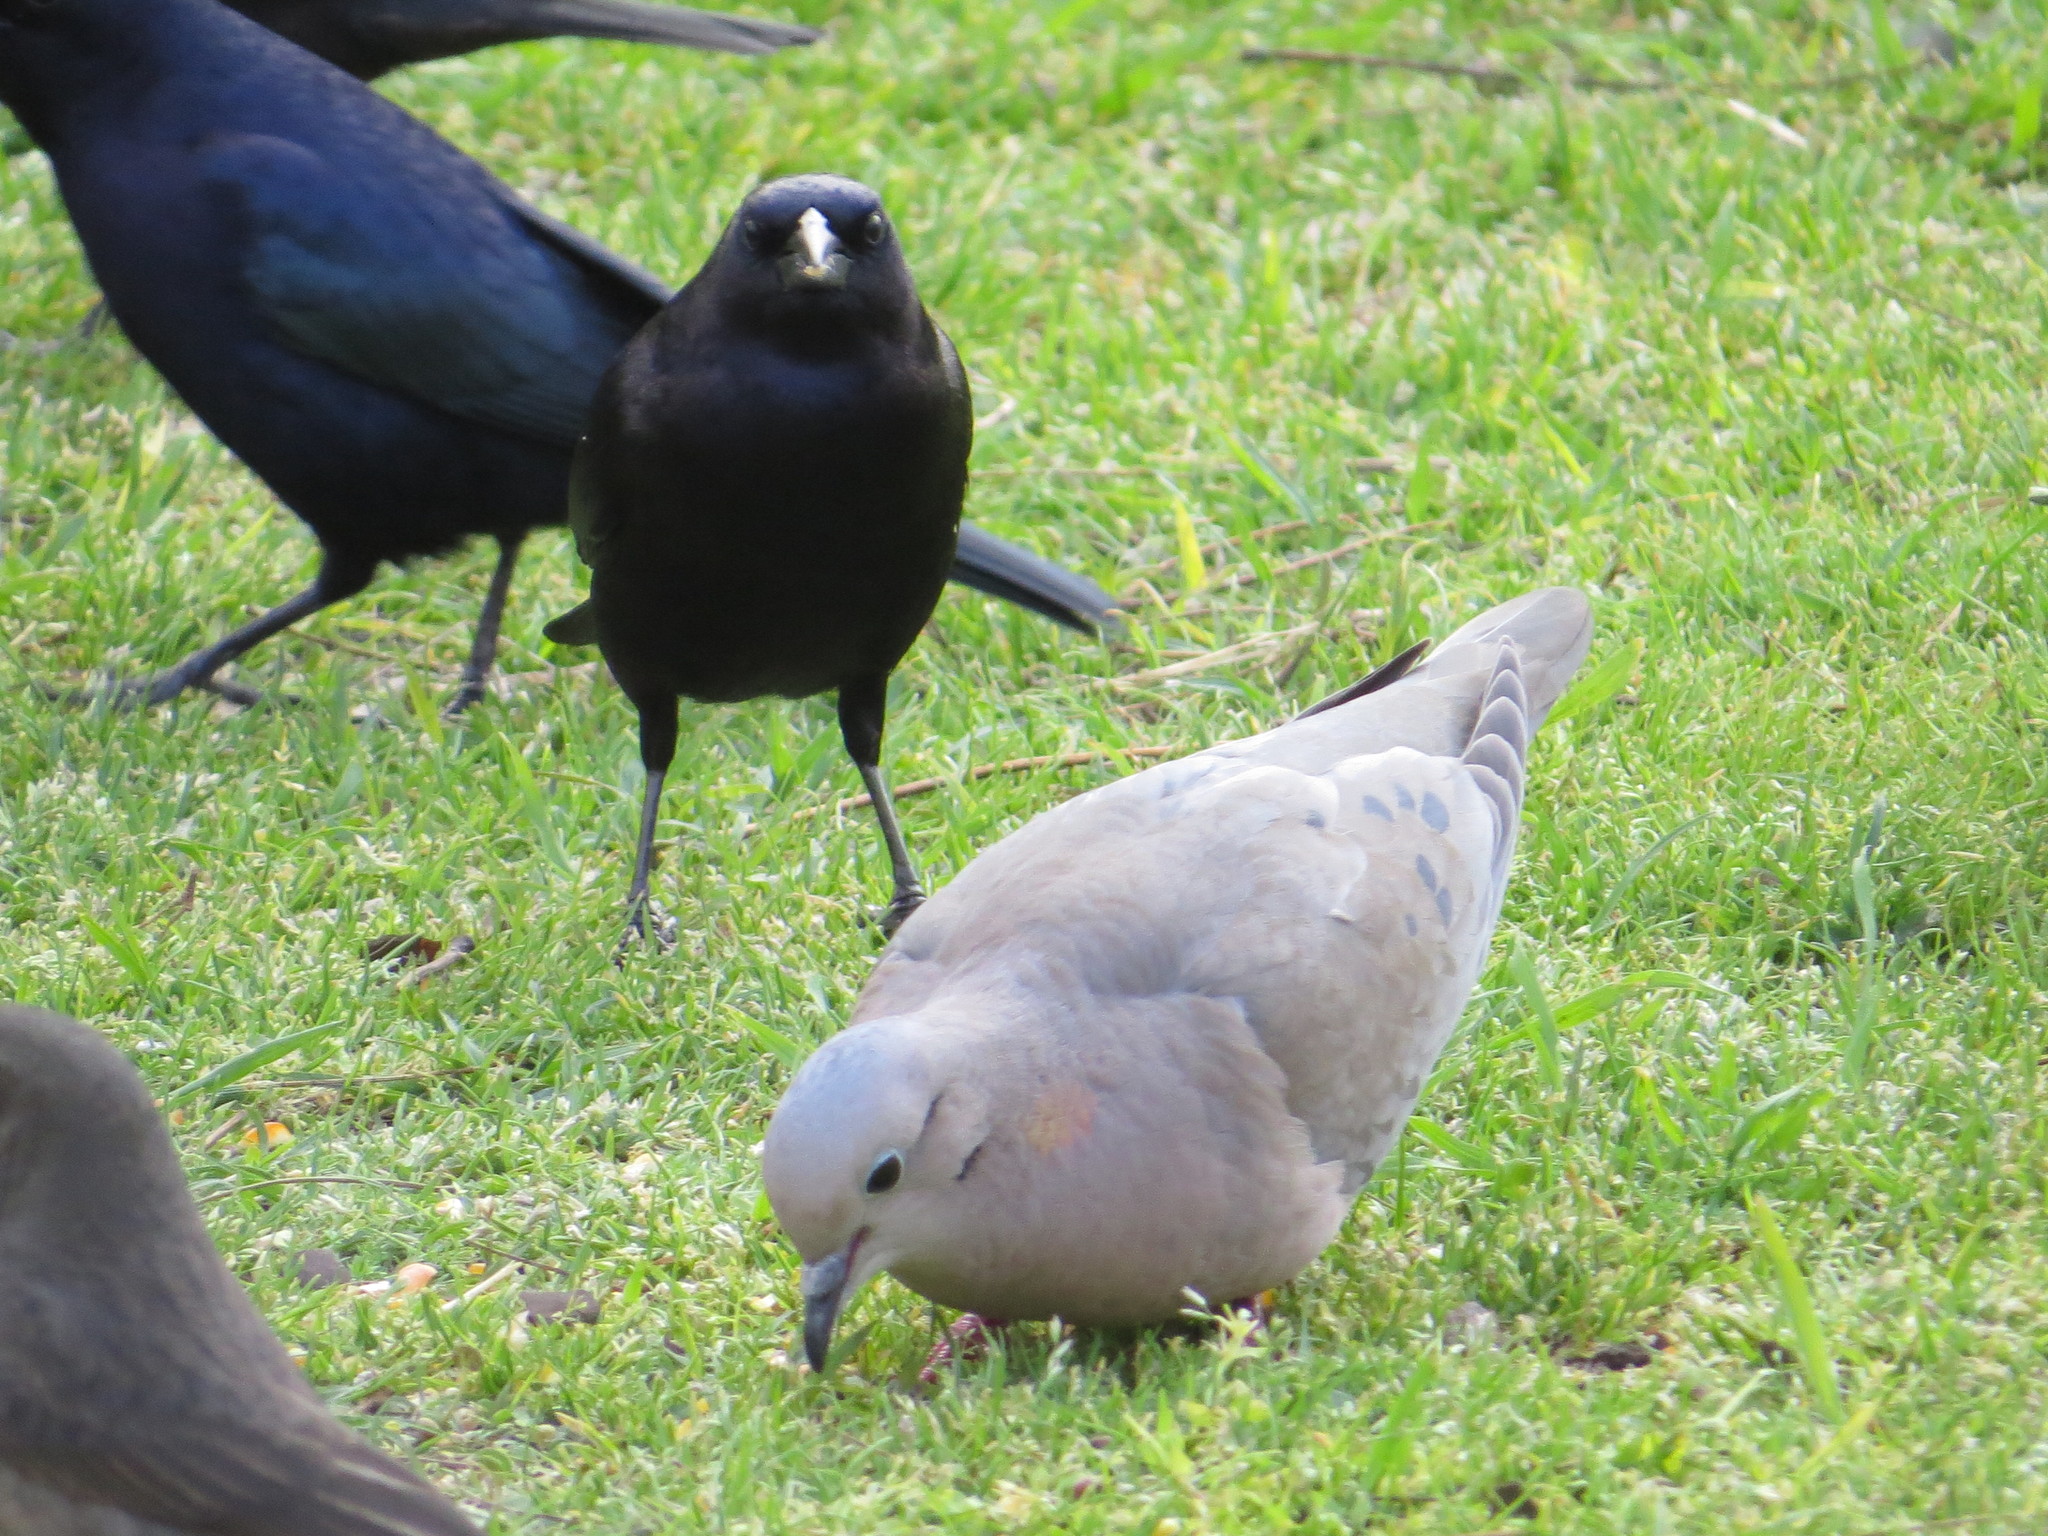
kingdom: Animalia
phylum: Chordata
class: Aves
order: Columbiformes
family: Columbidae
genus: Zenaida
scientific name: Zenaida auriculata
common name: Eared dove
